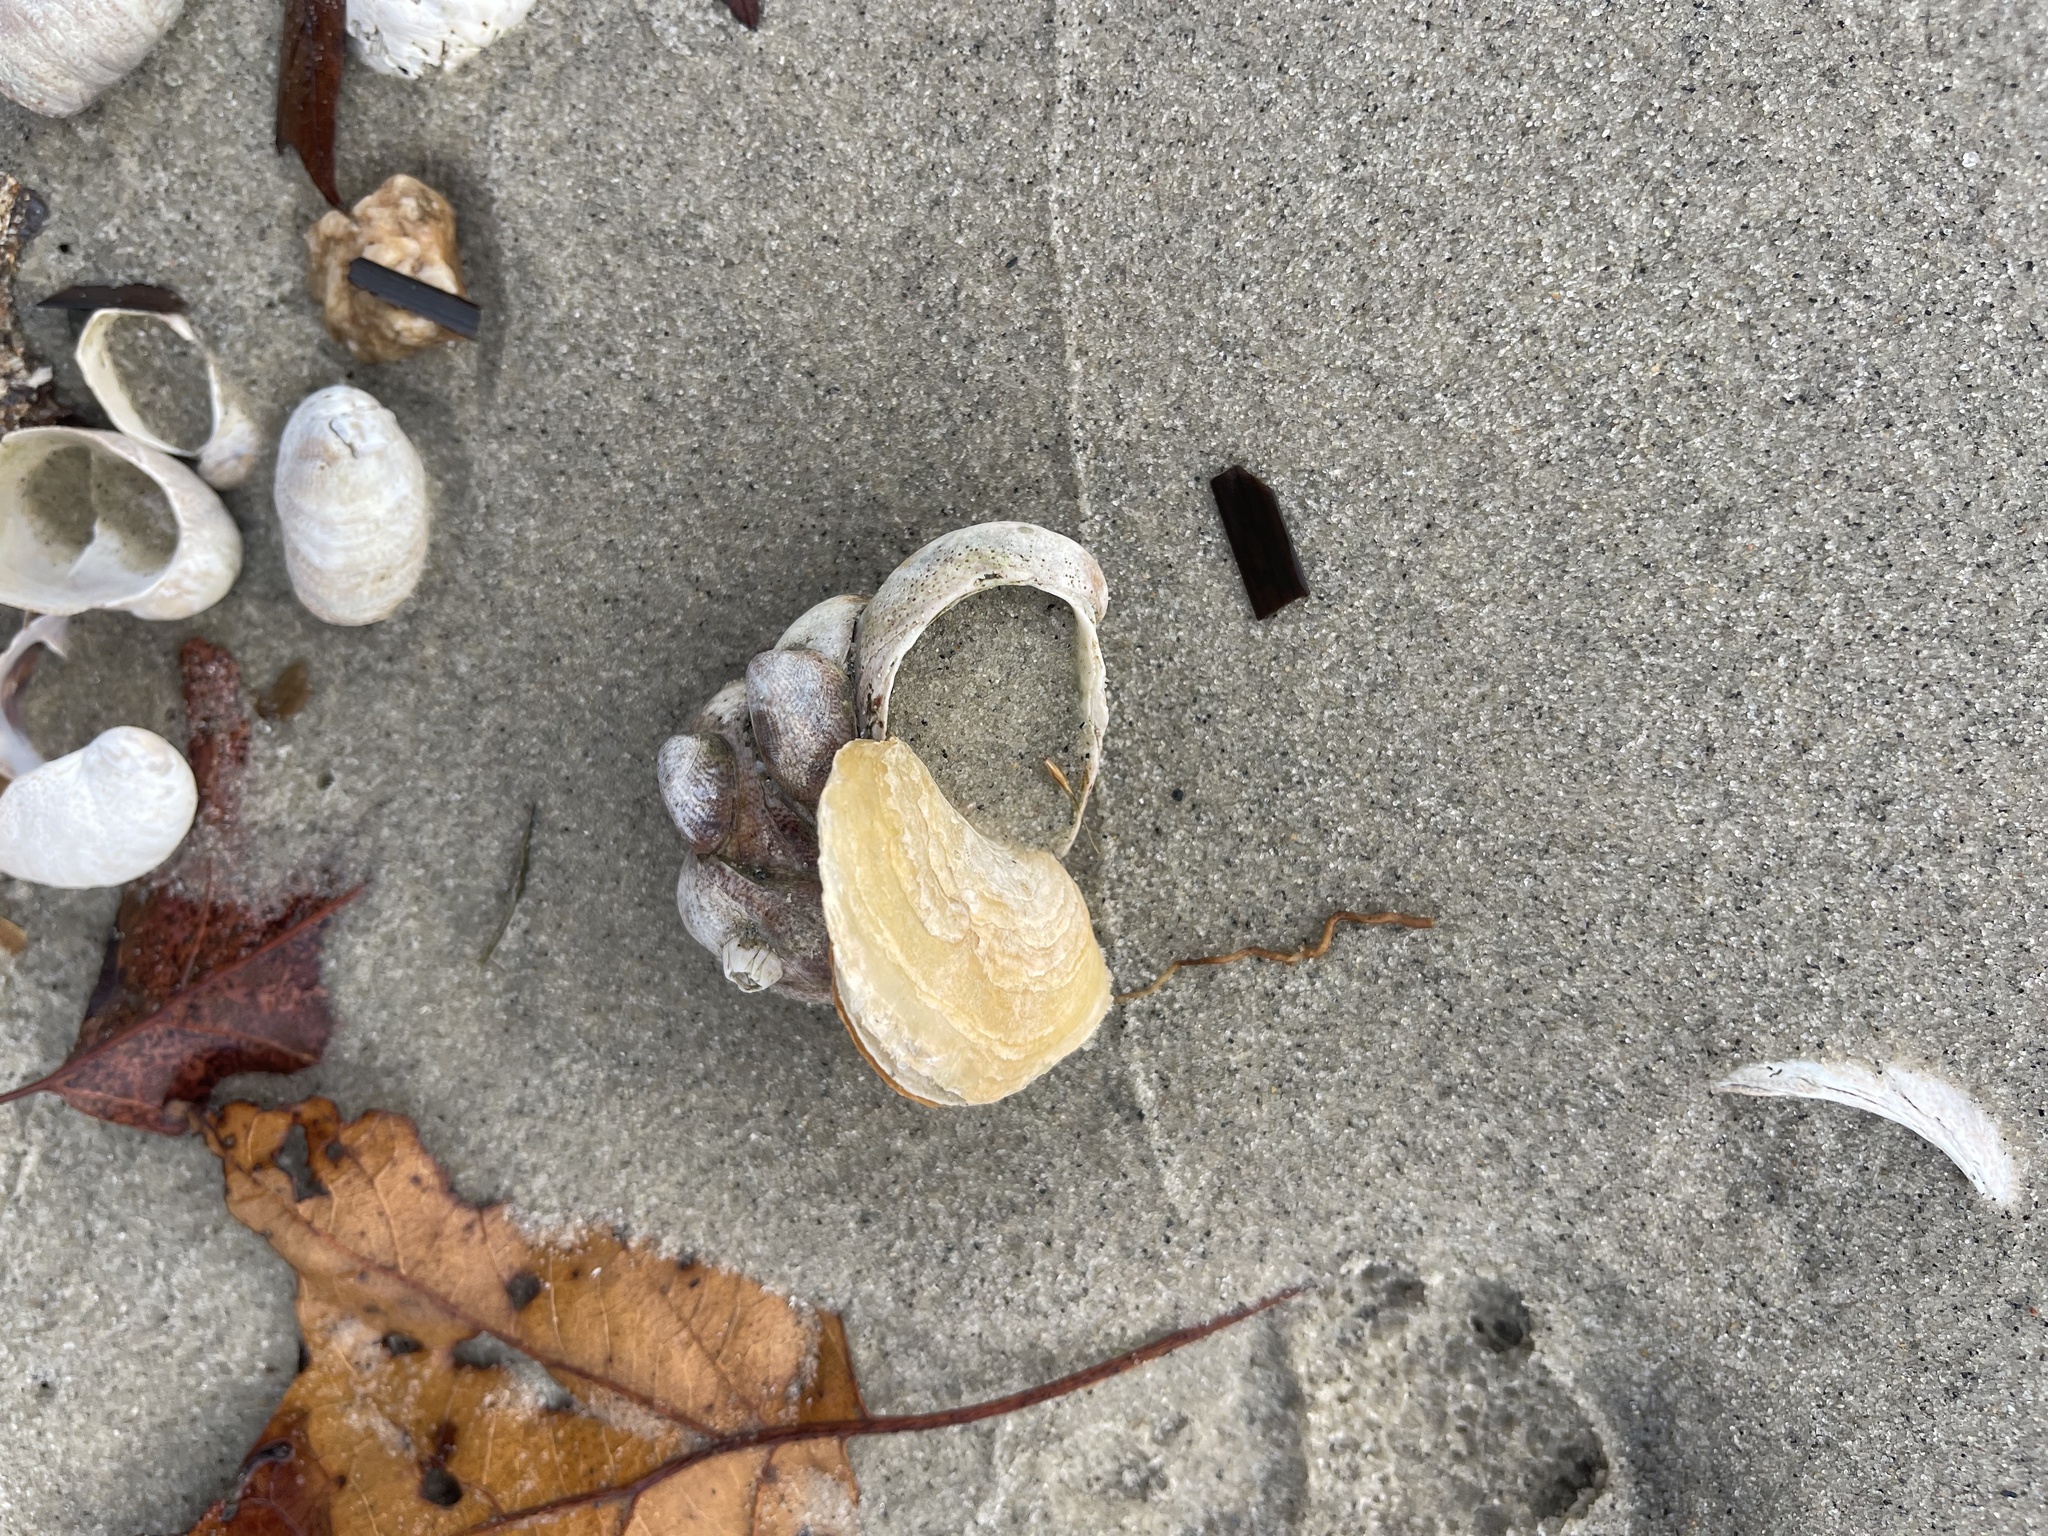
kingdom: Animalia
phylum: Mollusca
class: Gastropoda
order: Littorinimorpha
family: Calyptraeidae
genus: Crepidula
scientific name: Crepidula fornicata
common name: Slipper limpet
